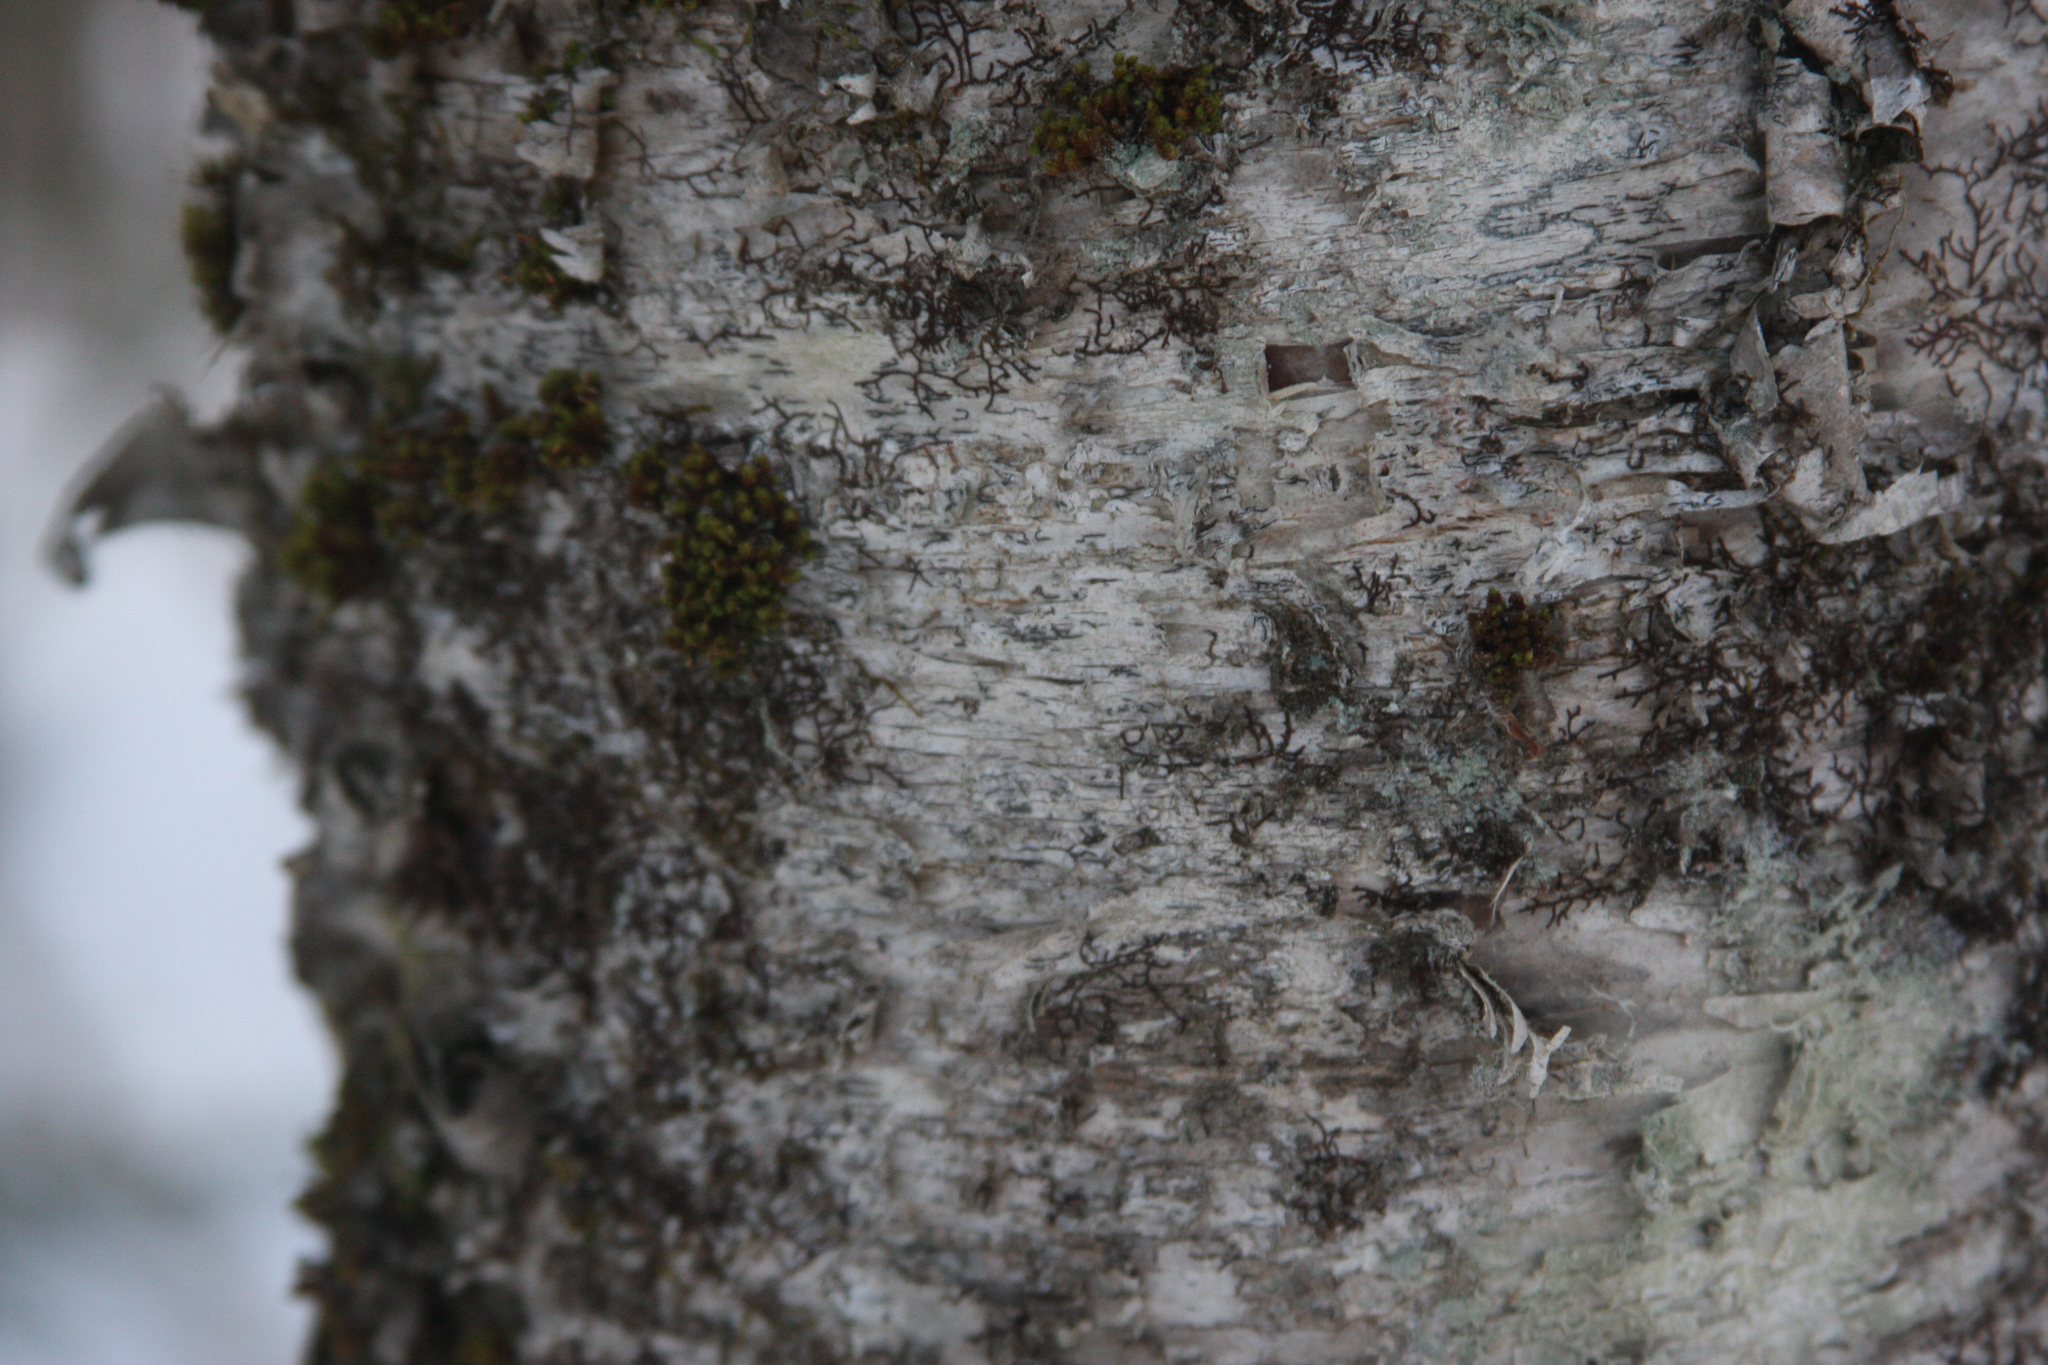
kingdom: Plantae
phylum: Bryophyta
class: Bryopsida
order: Orthotrichales
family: Orthotrichaceae
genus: Ulota
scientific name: Ulota crispa
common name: Crisped pincushion moss
